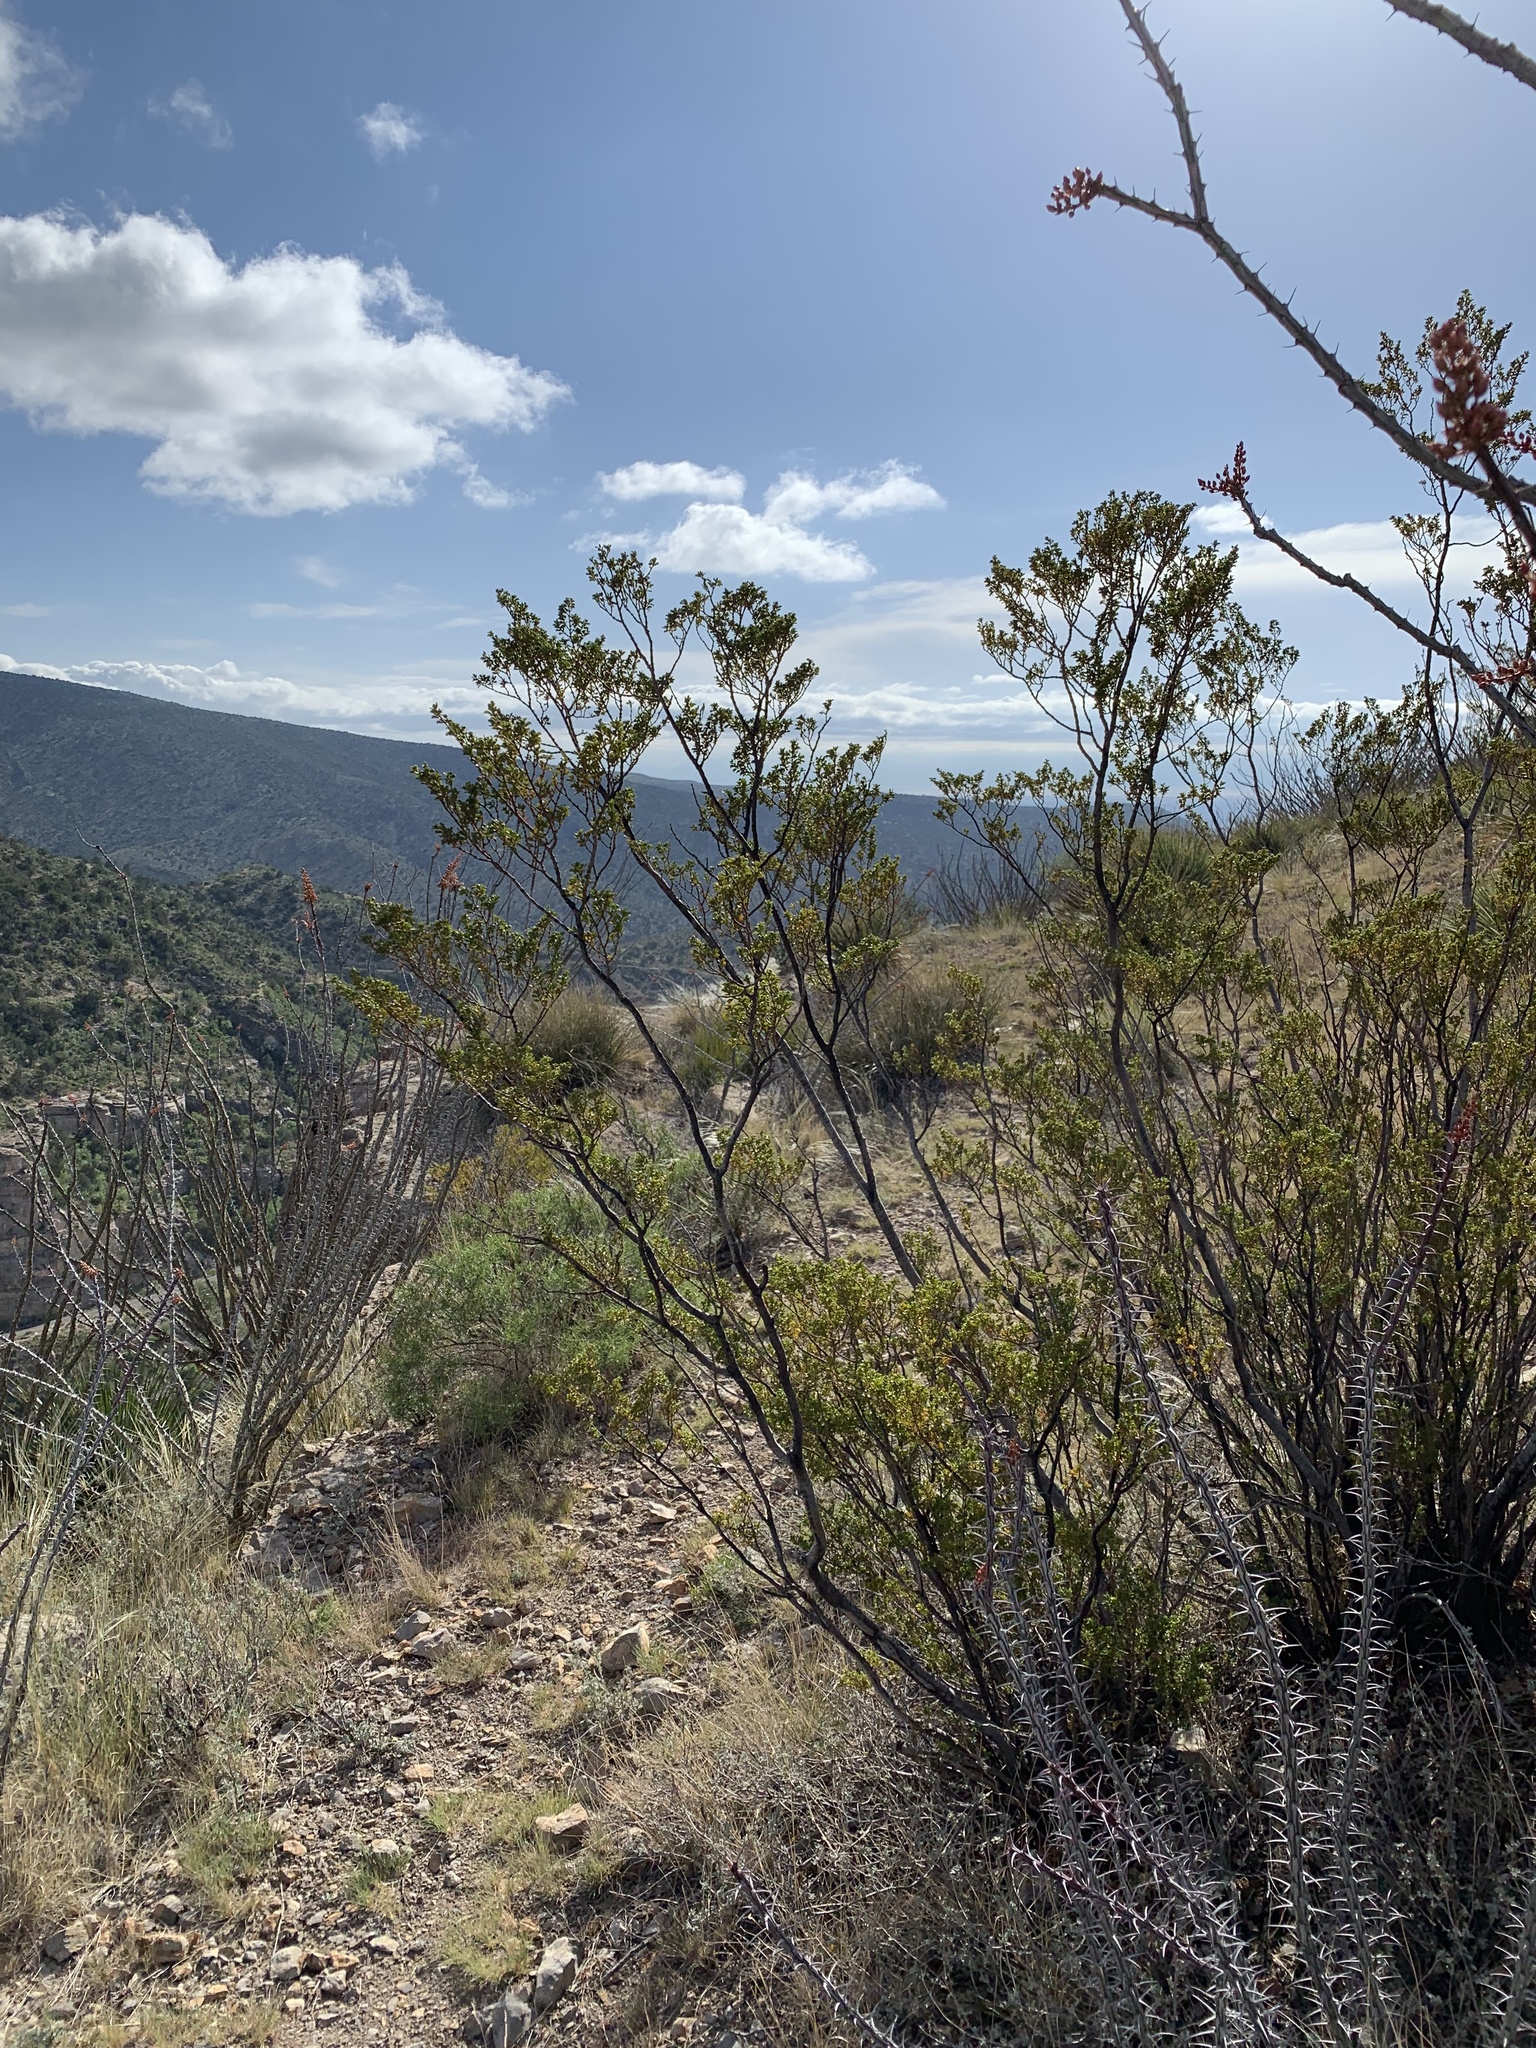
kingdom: Plantae
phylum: Tracheophyta
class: Magnoliopsida
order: Zygophyllales
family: Zygophyllaceae
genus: Larrea
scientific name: Larrea tridentata
